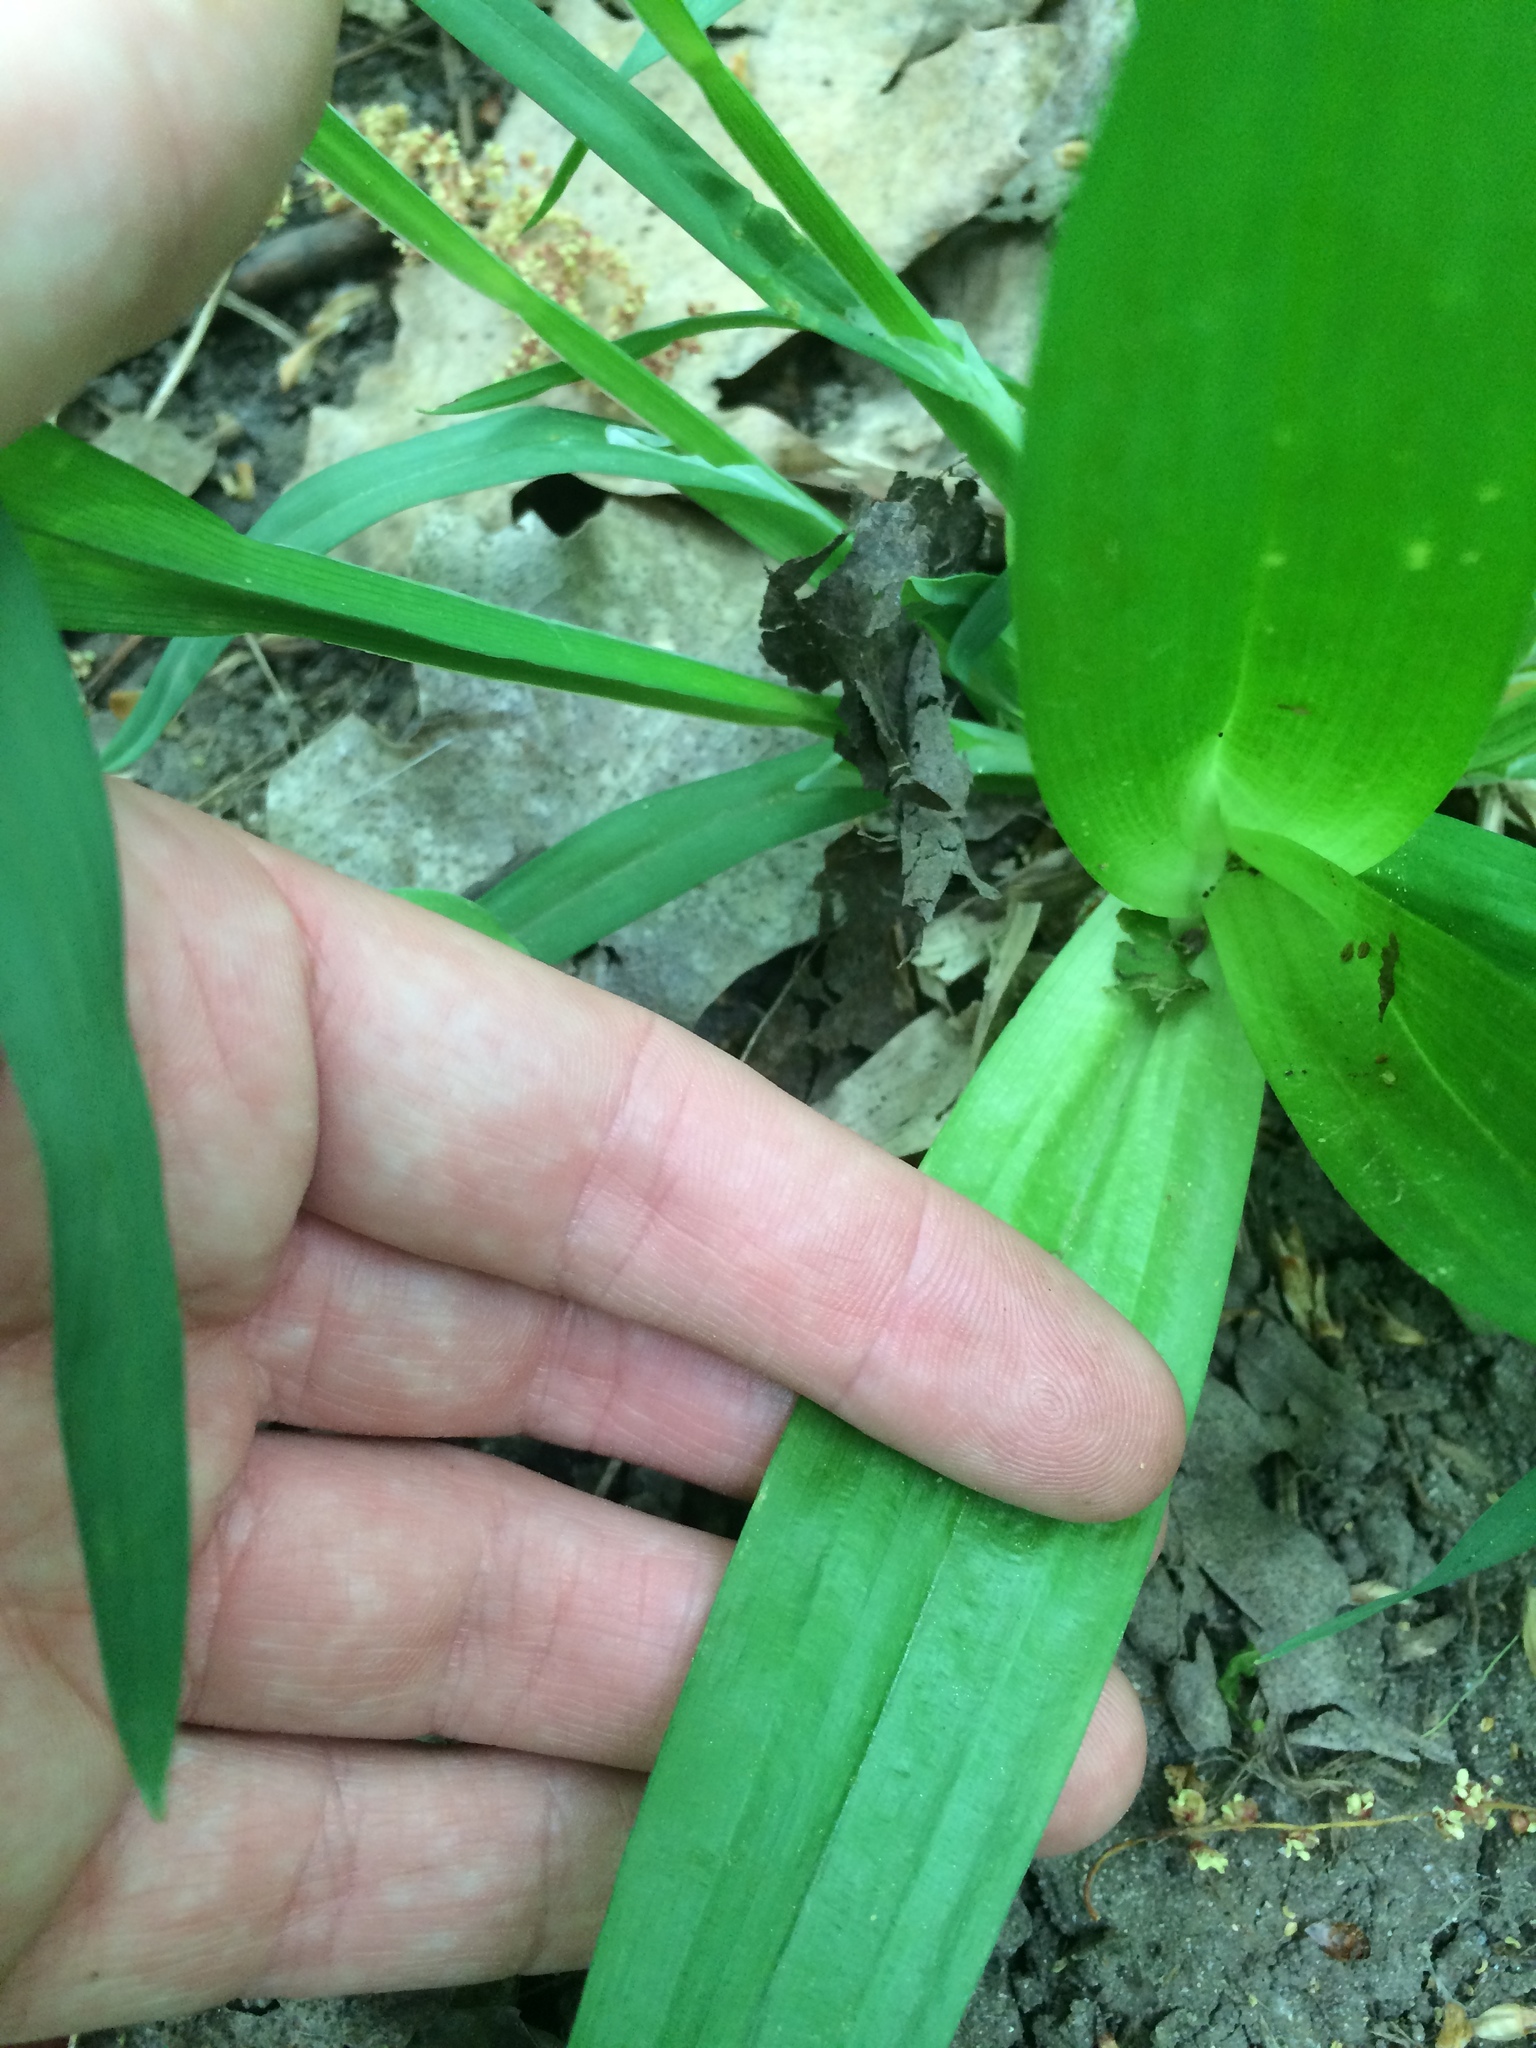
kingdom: Plantae
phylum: Tracheophyta
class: Liliopsida
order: Poales
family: Cyperaceae
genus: Carex
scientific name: Carex albursina
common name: Blunt-scale wood sedge
